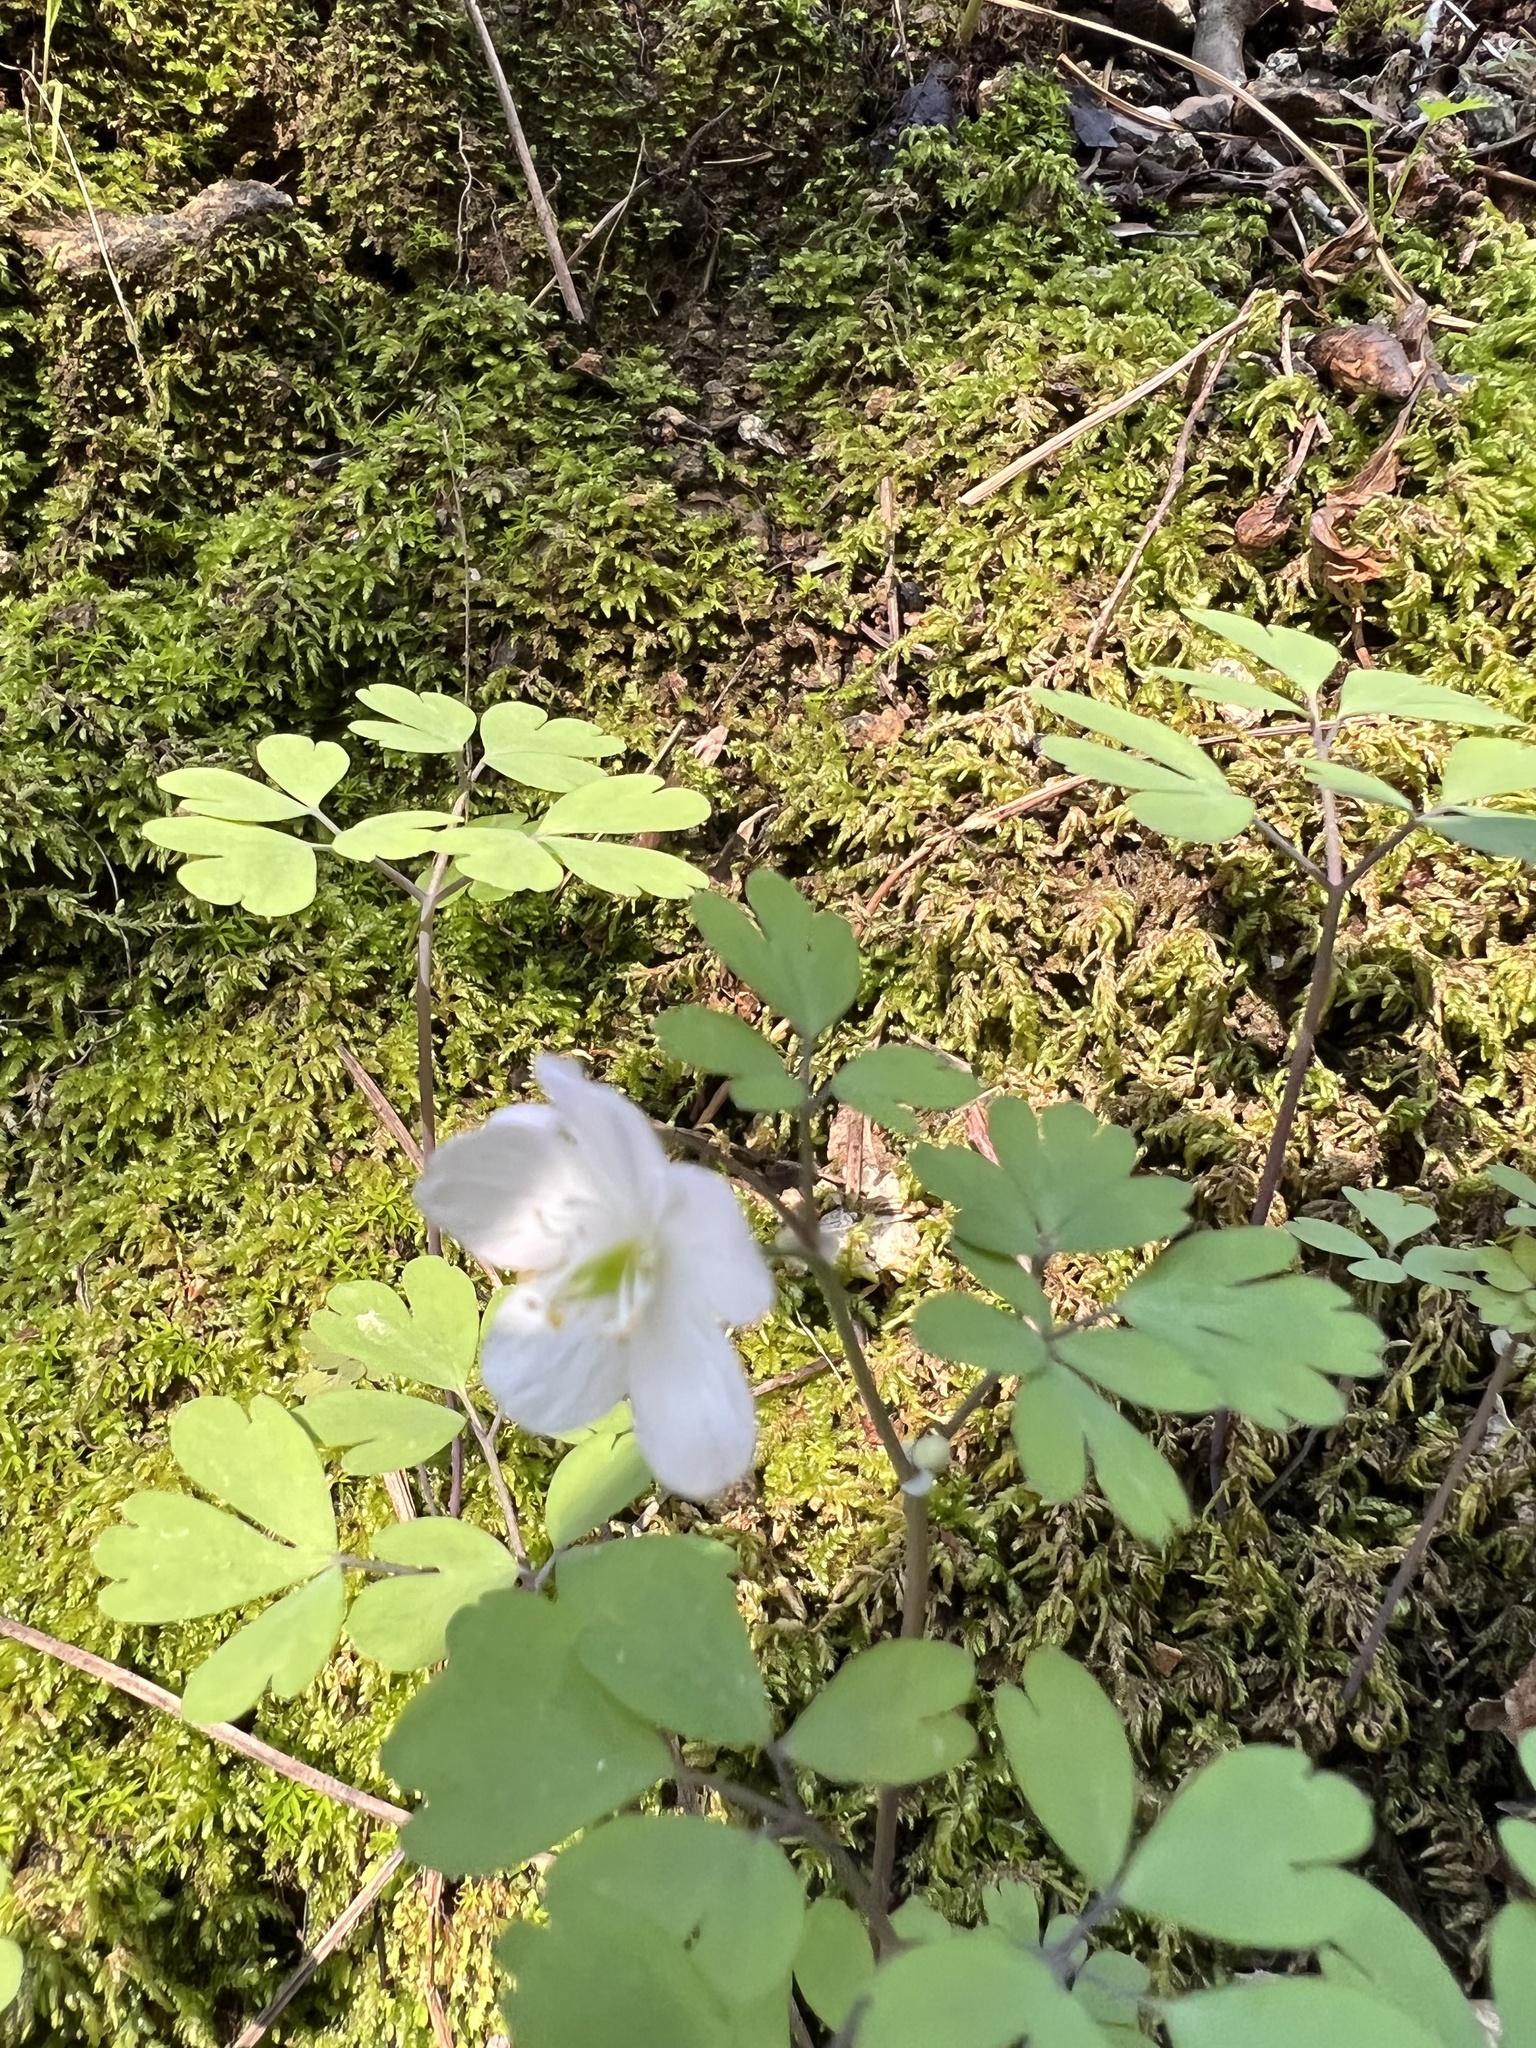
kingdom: Plantae
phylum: Tracheophyta
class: Magnoliopsida
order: Ranunculales
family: Ranunculaceae
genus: Enemion
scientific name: Enemion occidentale
